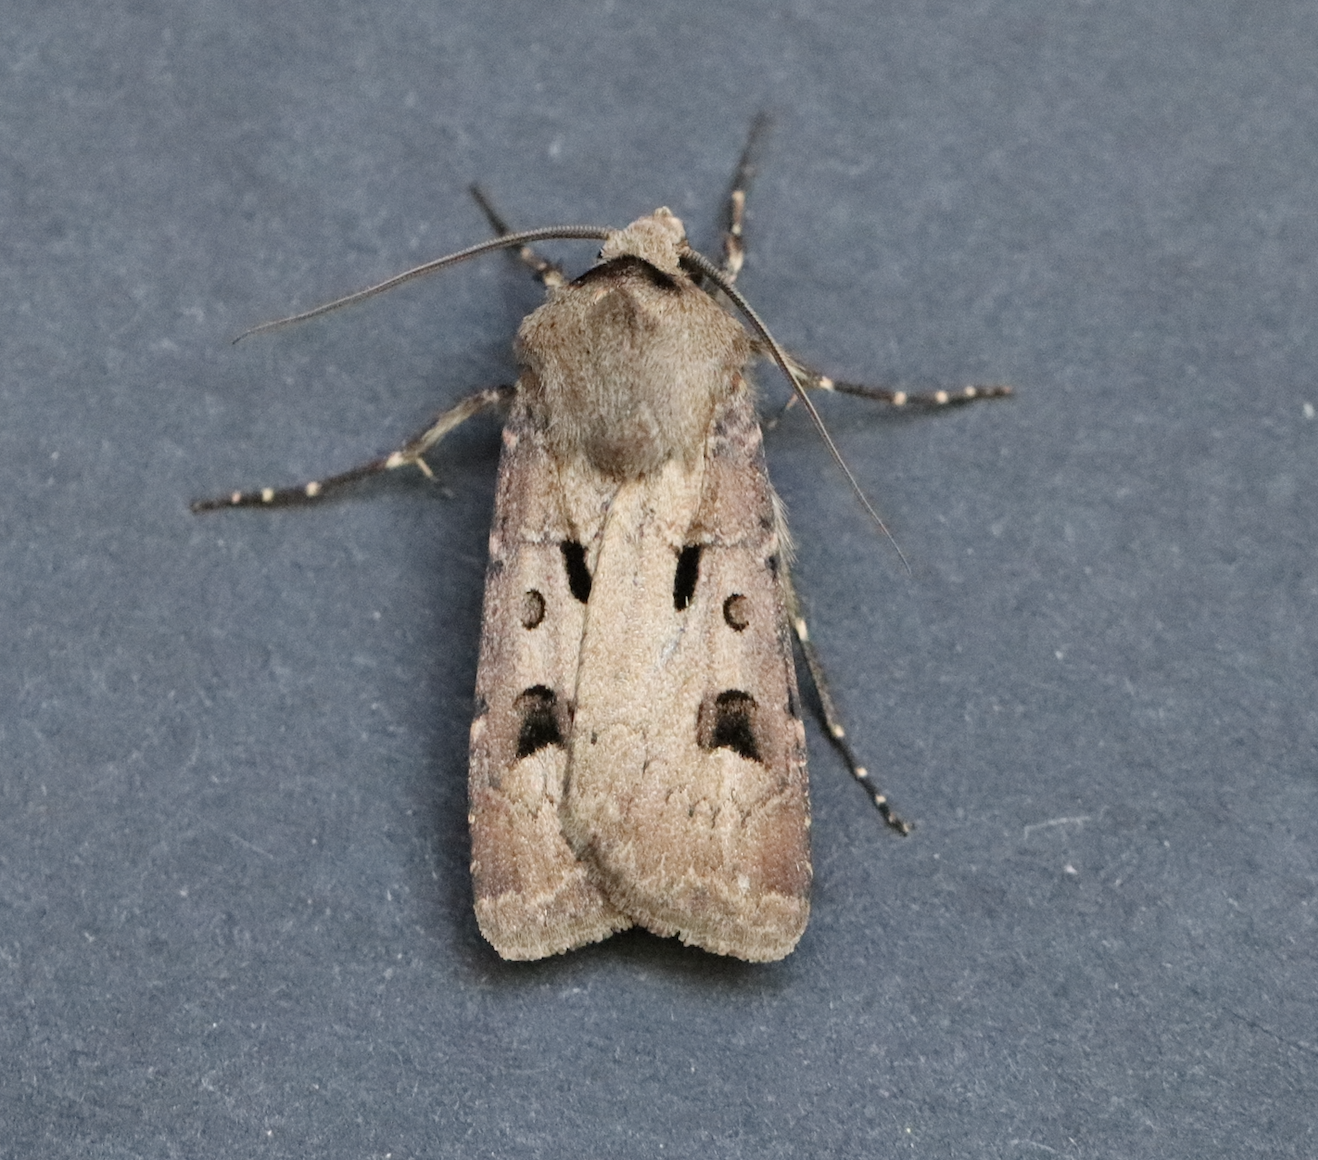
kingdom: Animalia
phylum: Arthropoda
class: Insecta
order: Lepidoptera
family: Noctuidae
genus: Agrotis
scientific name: Agrotis exclamationis
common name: Heart and dart
